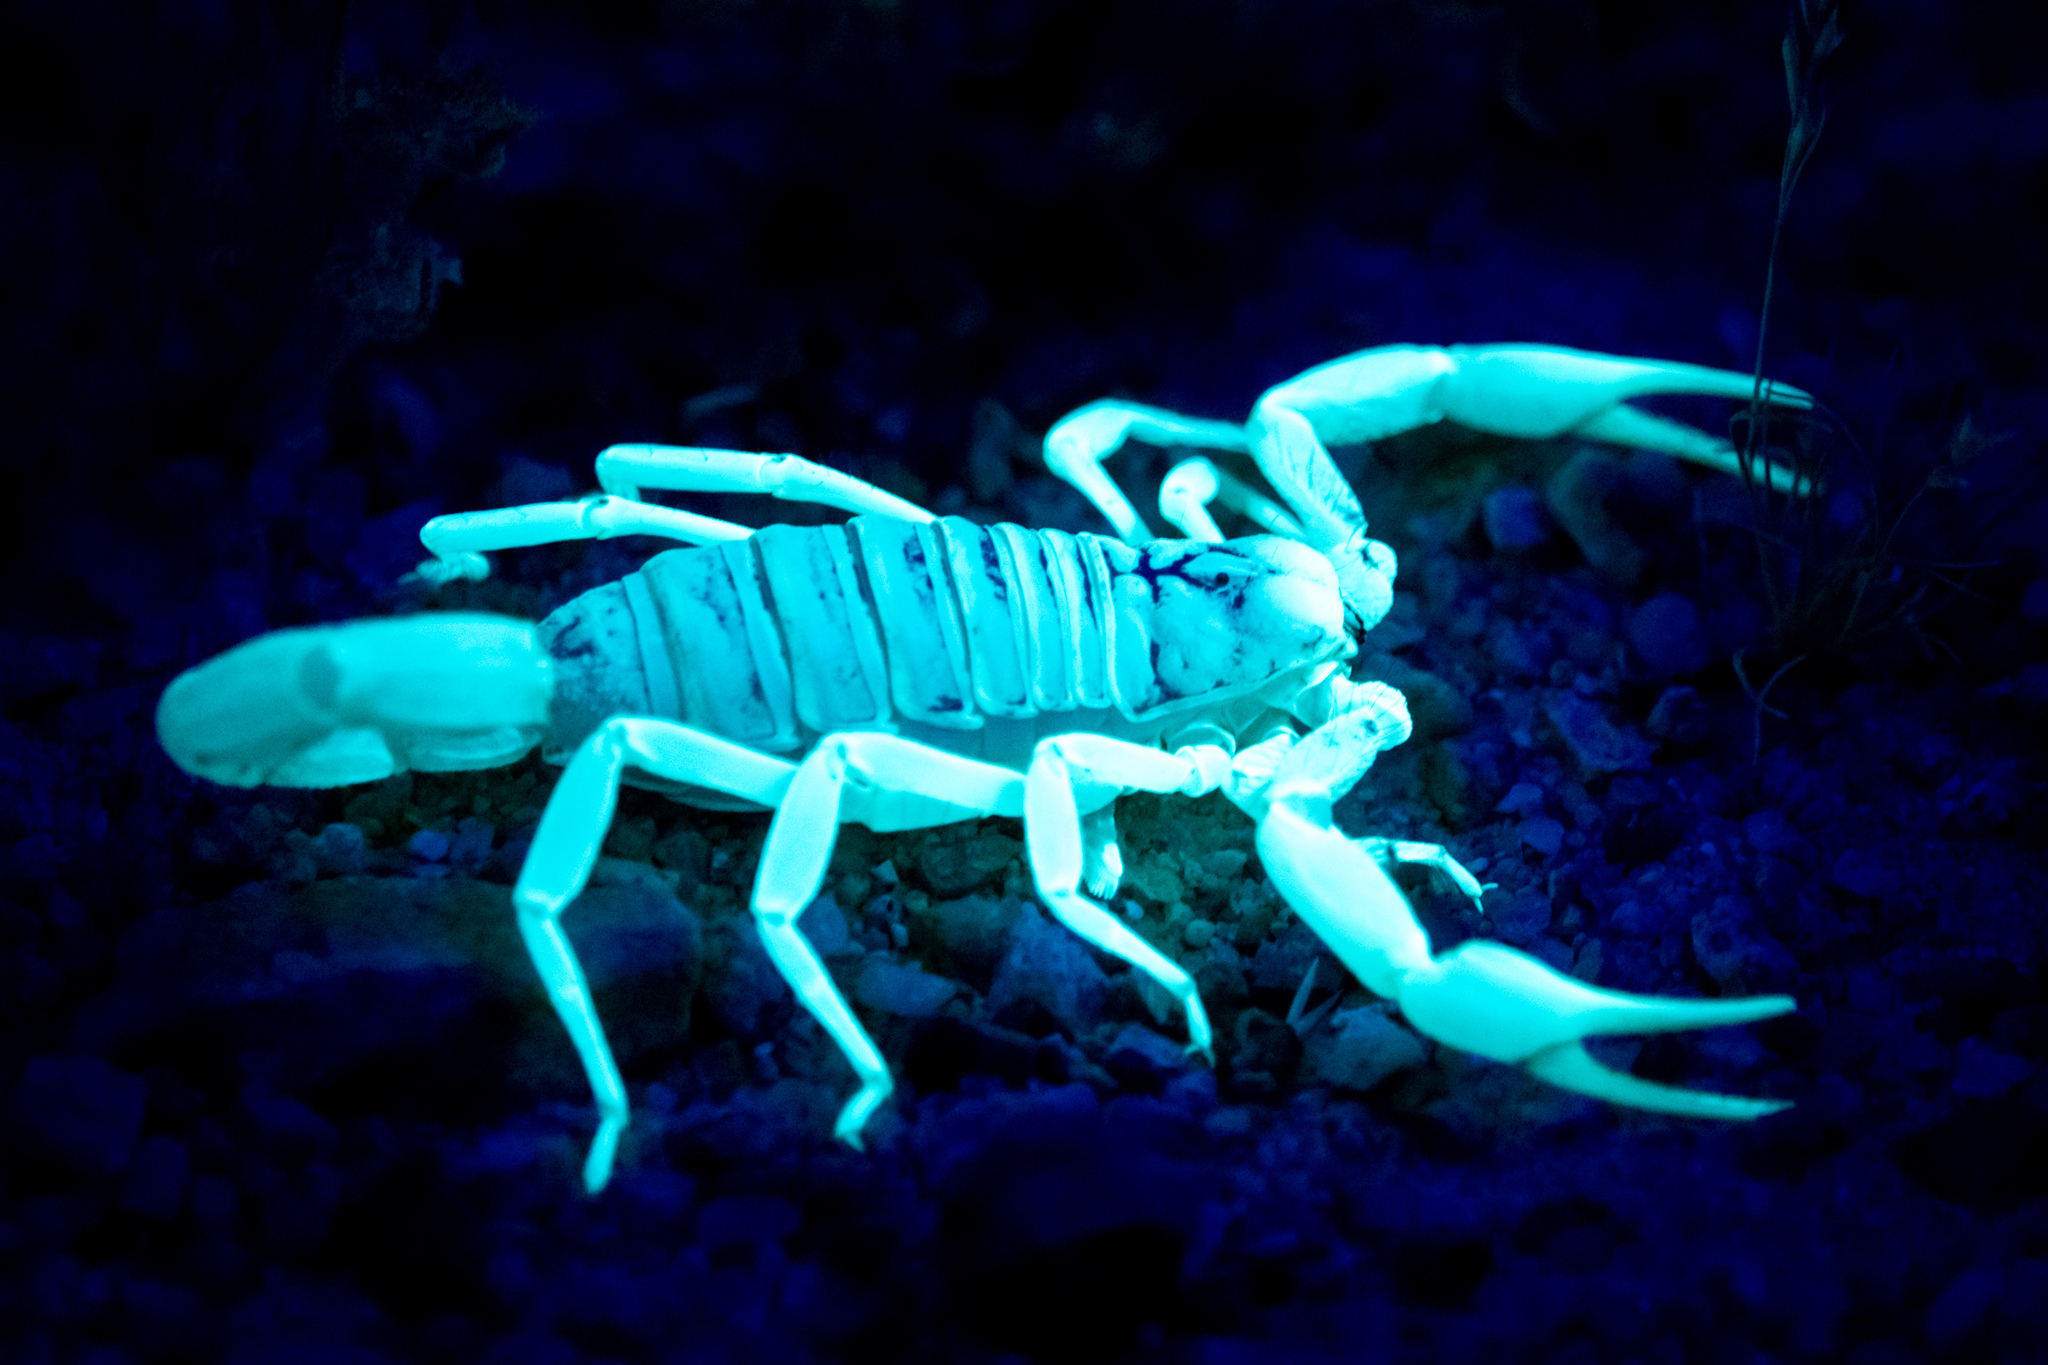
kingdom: Animalia
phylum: Arthropoda
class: Arachnida
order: Scorpiones
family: Hadruridae
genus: Hadrurus
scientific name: Hadrurus arizonensis
